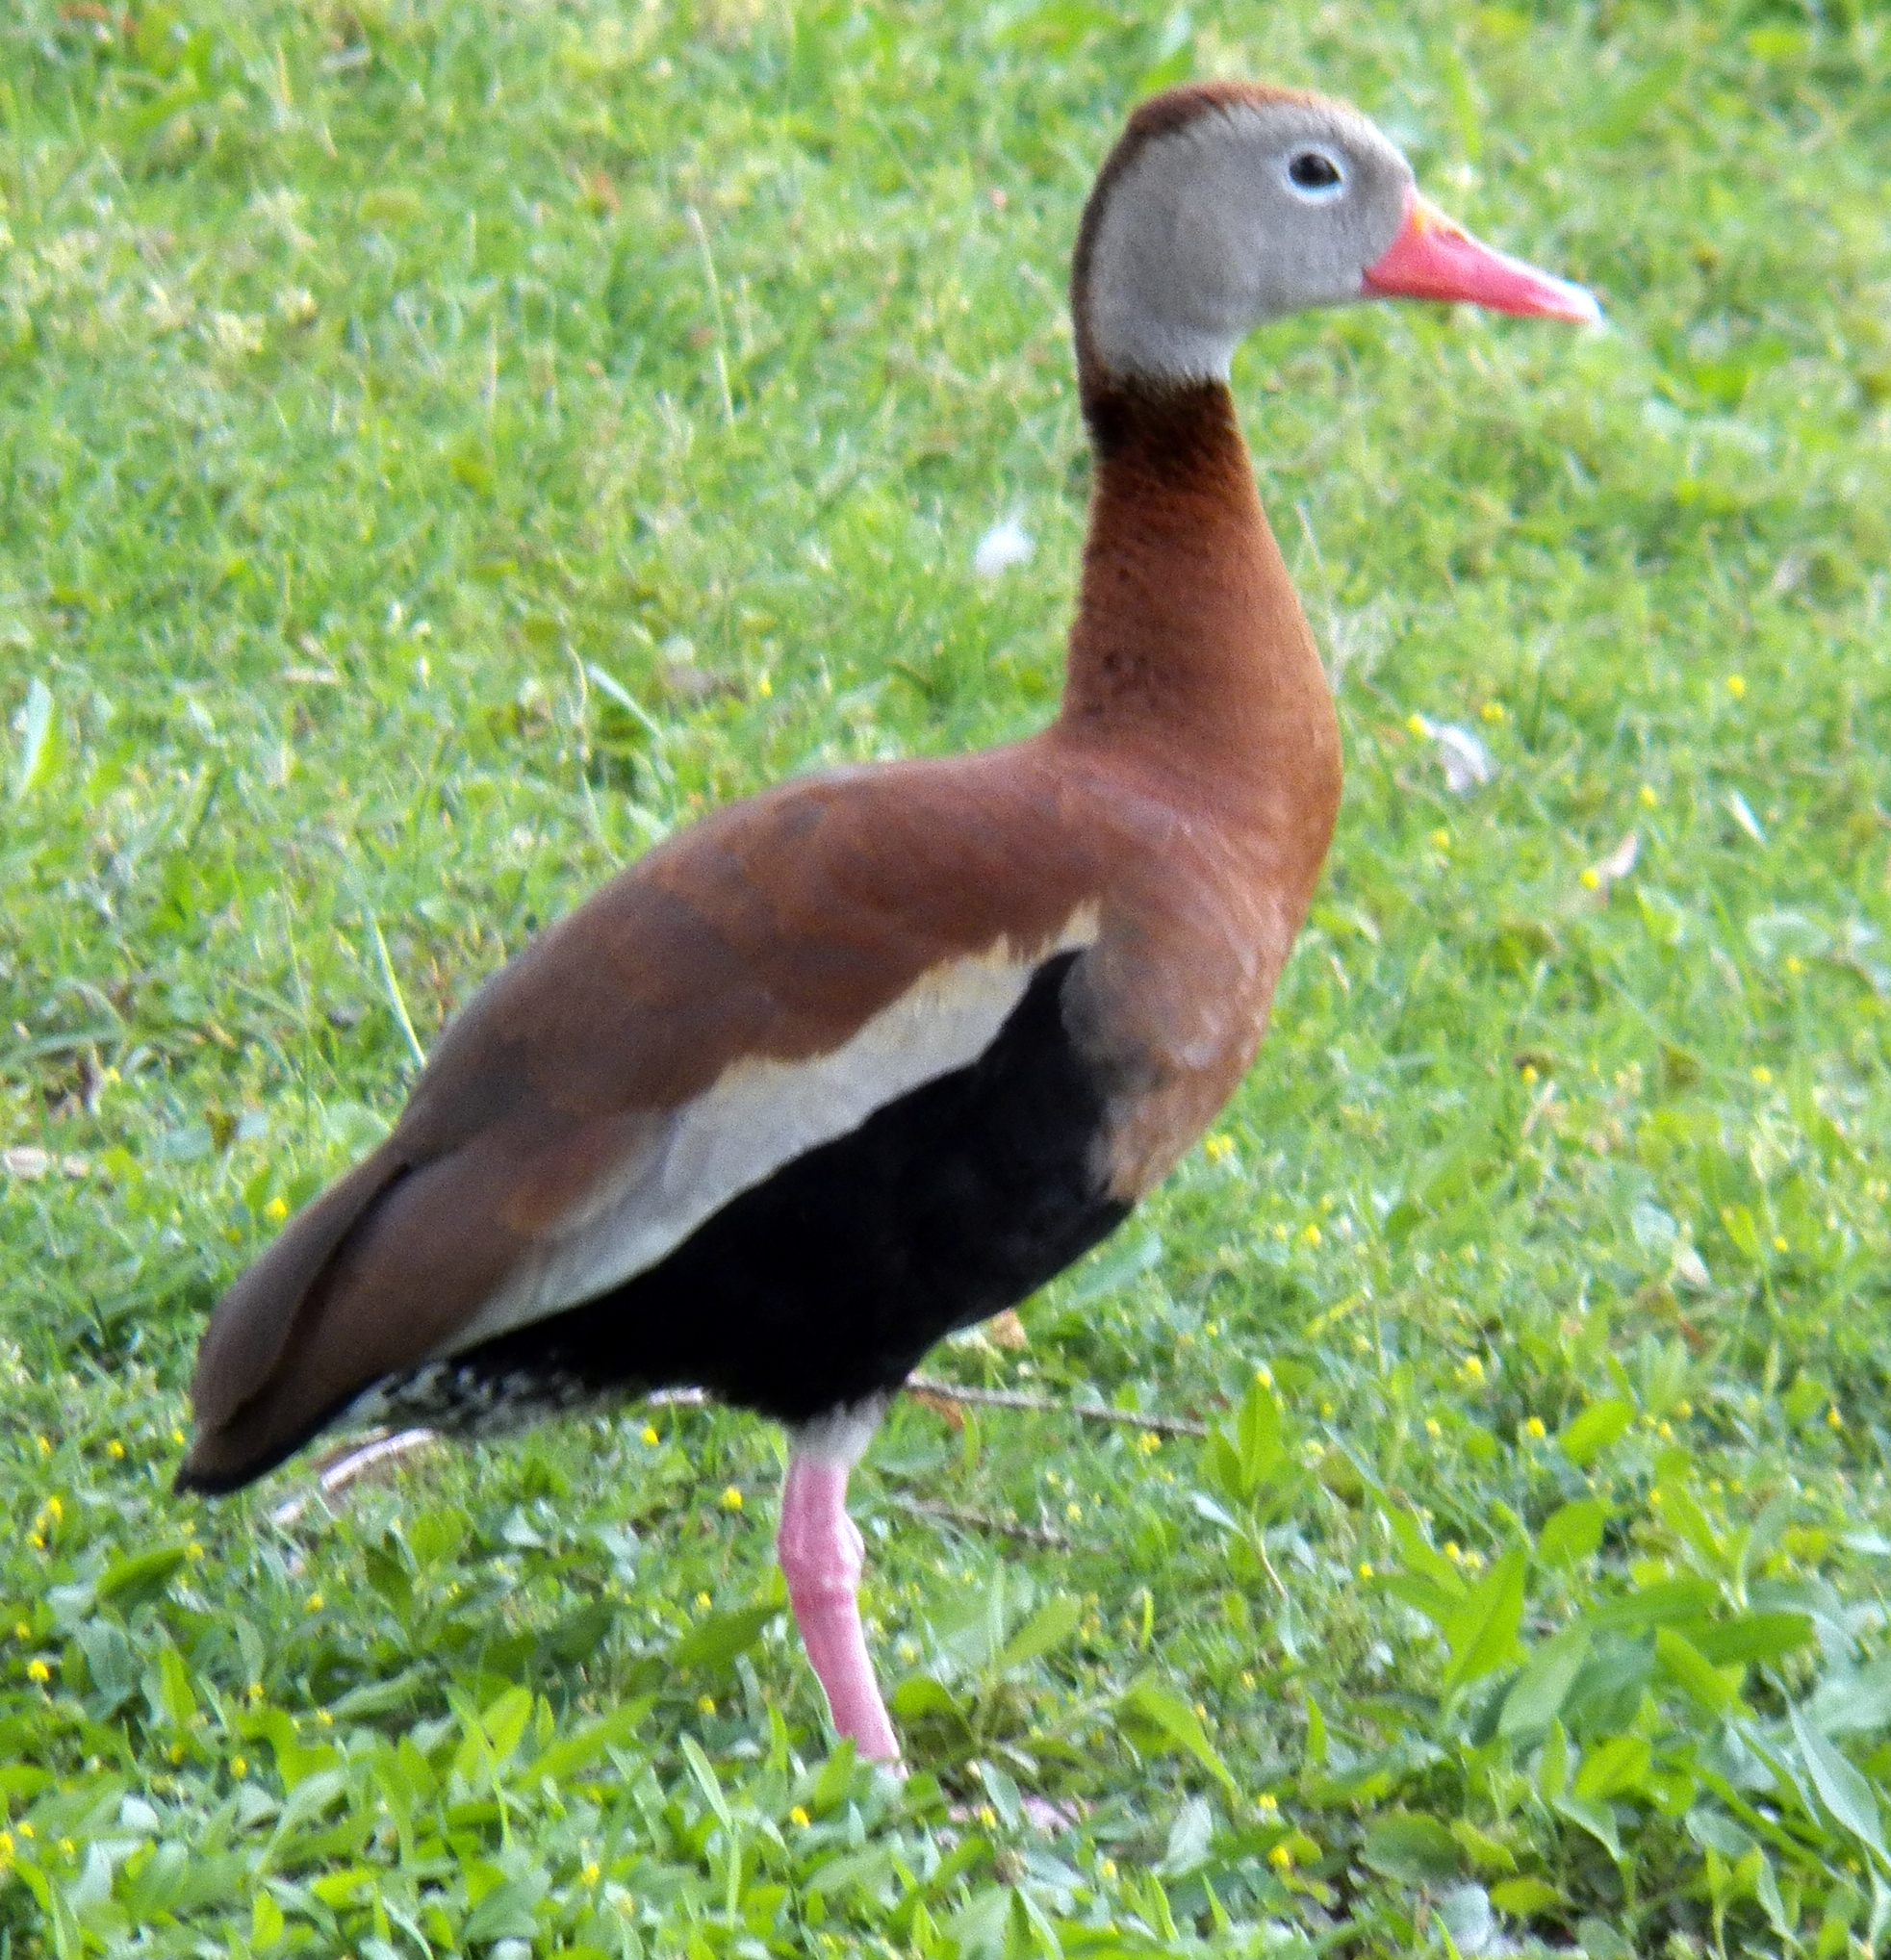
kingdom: Animalia
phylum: Chordata
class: Aves
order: Anseriformes
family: Anatidae
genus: Dendrocygna
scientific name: Dendrocygna autumnalis
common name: Black-bellied whistling duck
